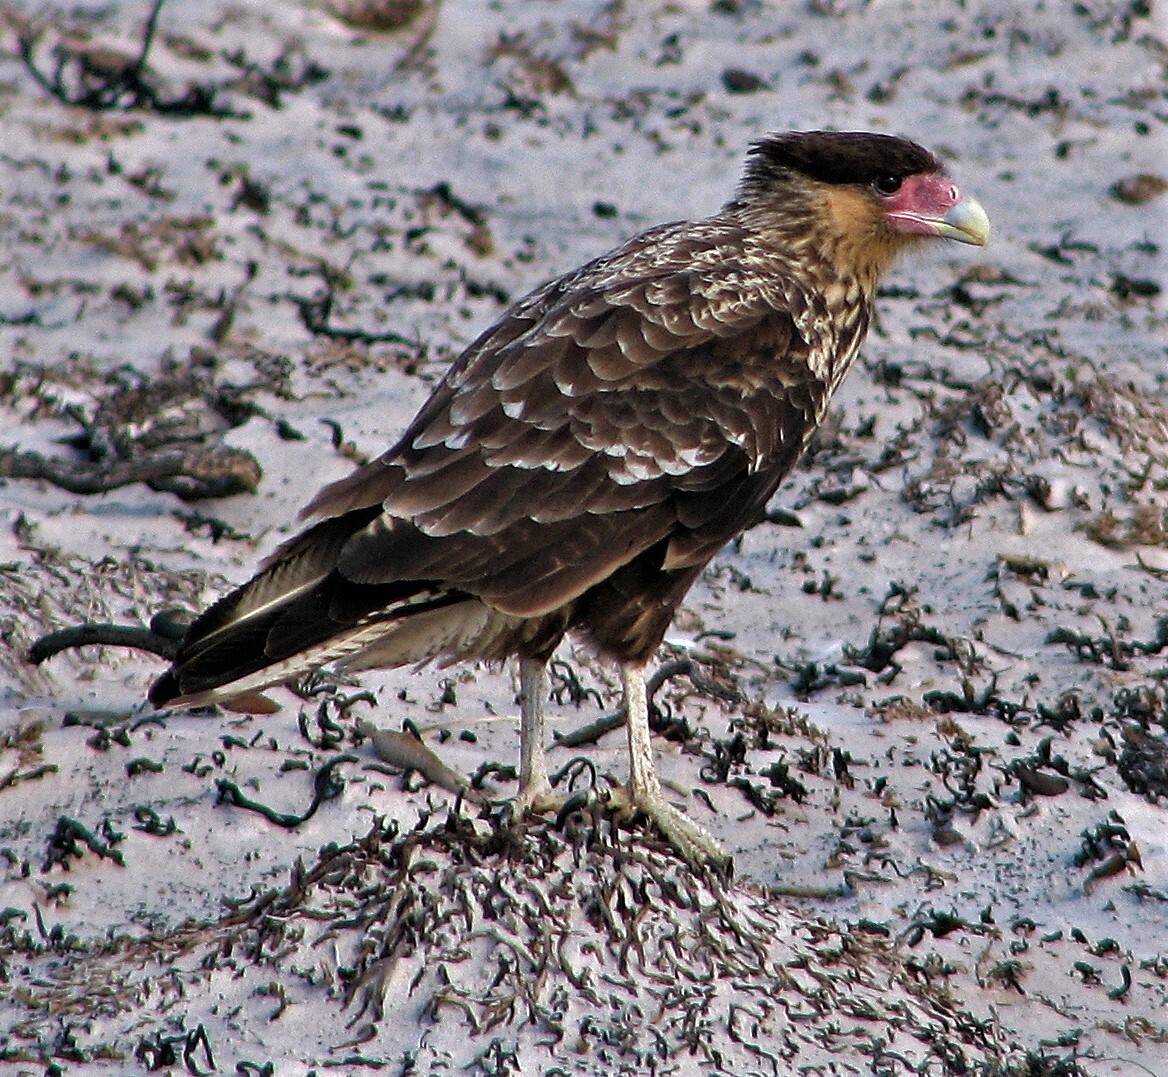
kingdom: Animalia
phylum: Chordata
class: Aves
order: Falconiformes
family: Falconidae
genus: Caracara
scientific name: Caracara plancus
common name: Southern caracara
